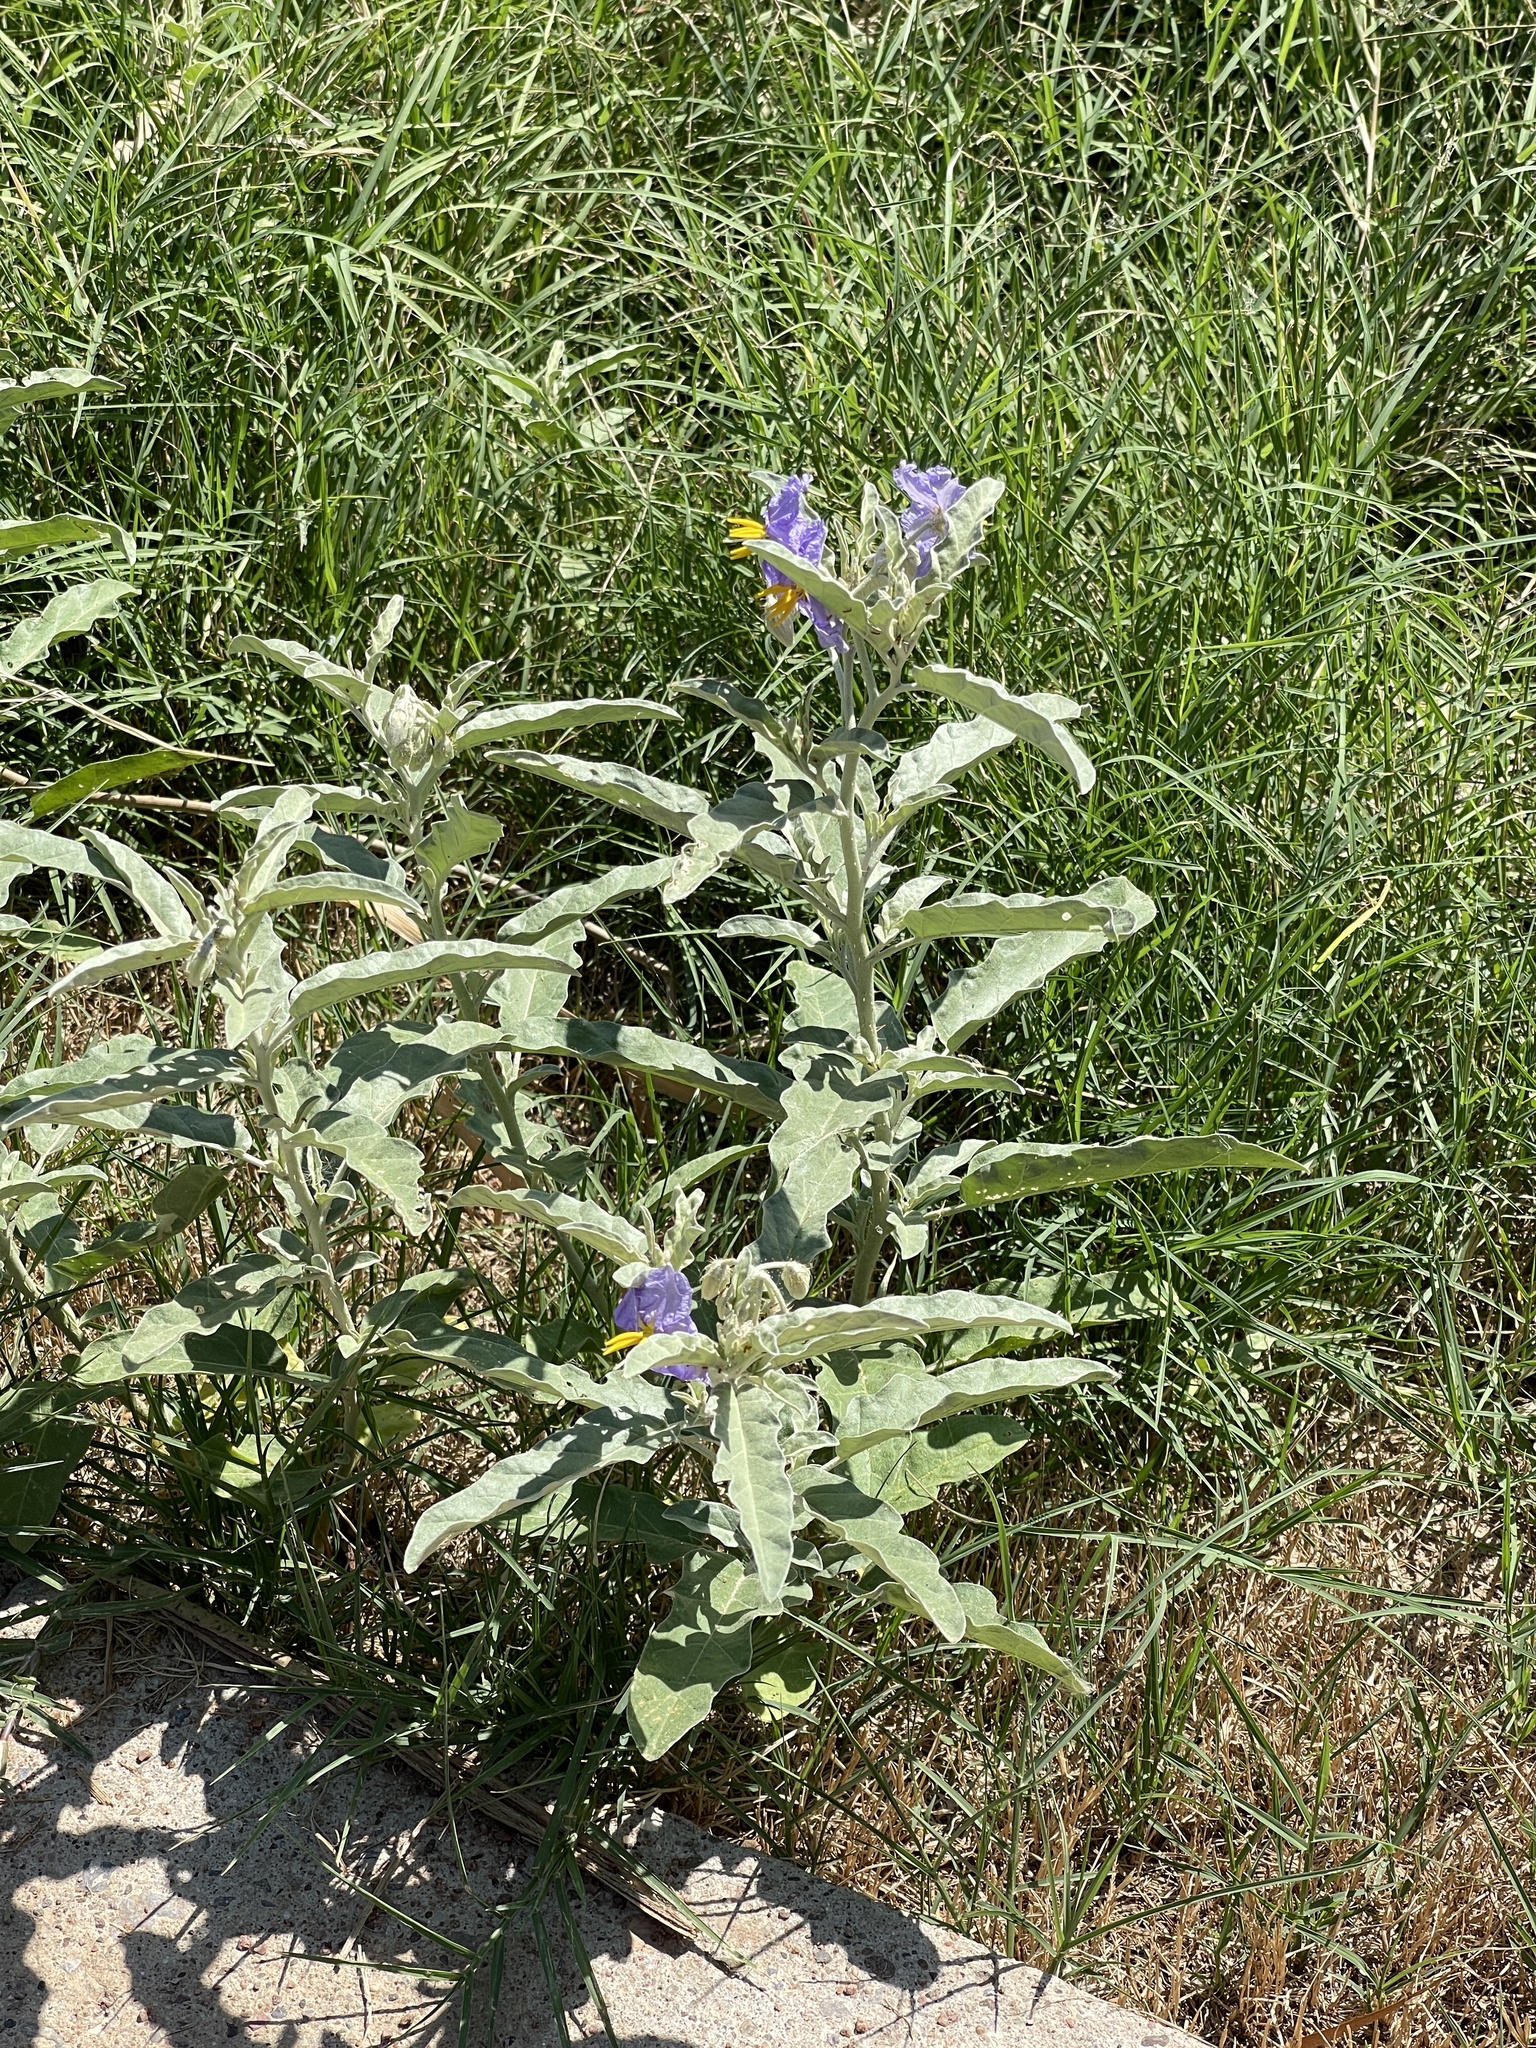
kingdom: Plantae
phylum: Tracheophyta
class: Magnoliopsida
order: Solanales
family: Solanaceae
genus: Solanum
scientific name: Solanum elaeagnifolium
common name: Silverleaf nightshade
